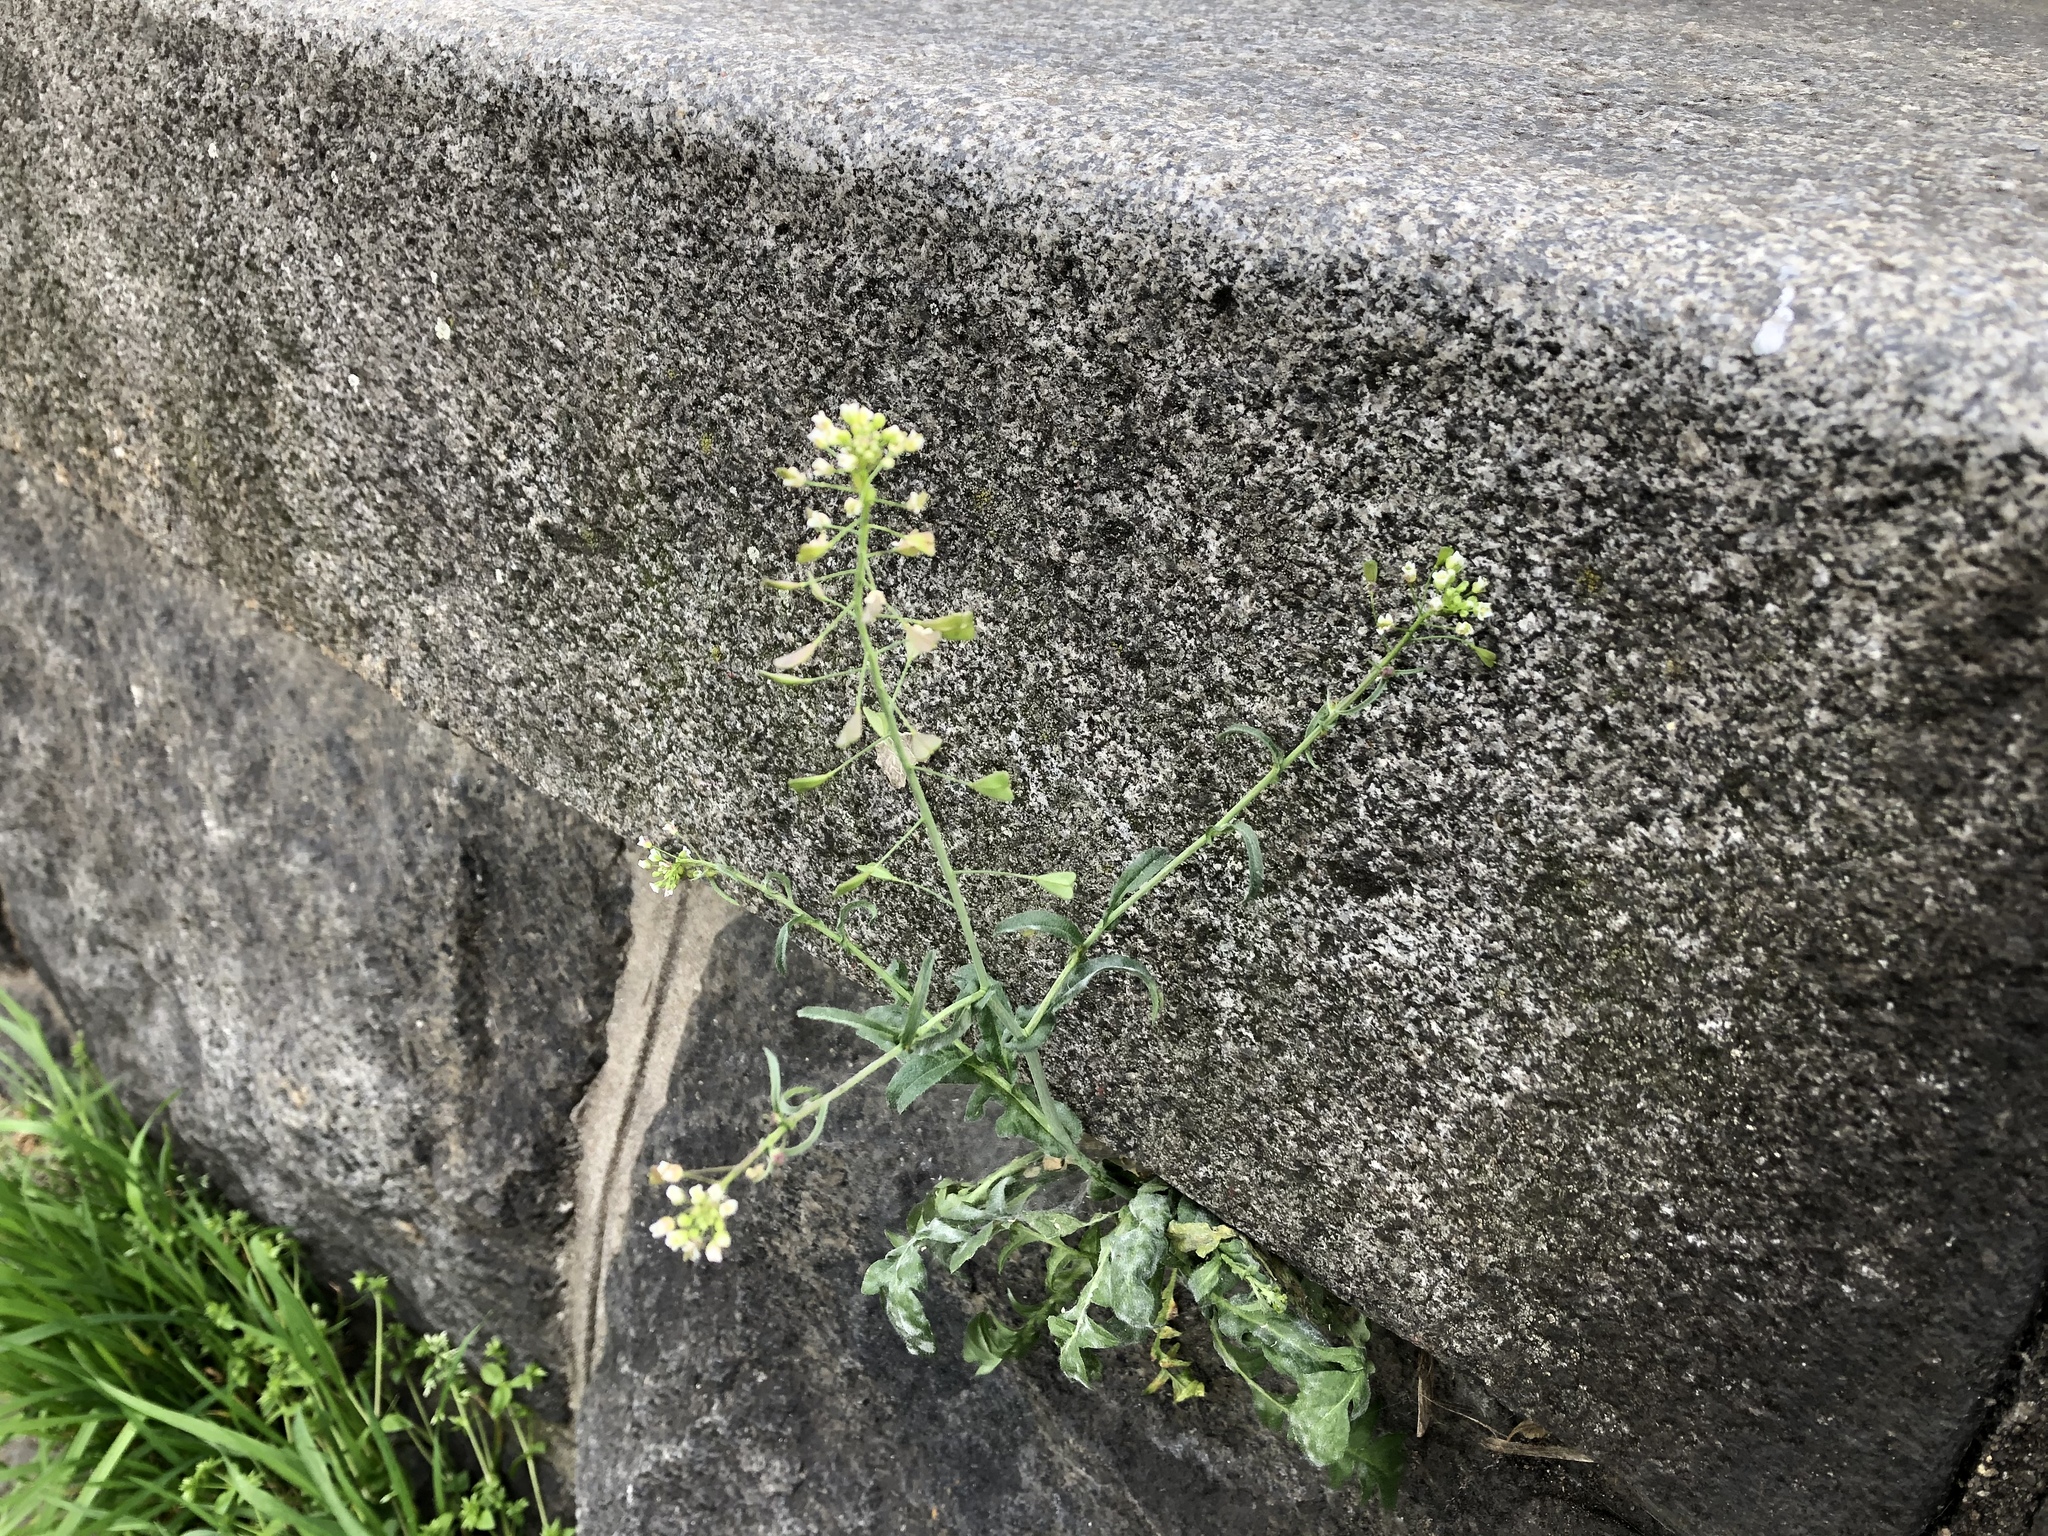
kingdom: Plantae
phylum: Tracheophyta
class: Magnoliopsida
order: Brassicales
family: Brassicaceae
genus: Capsella
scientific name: Capsella bursa-pastoris
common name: Shepherd's purse
